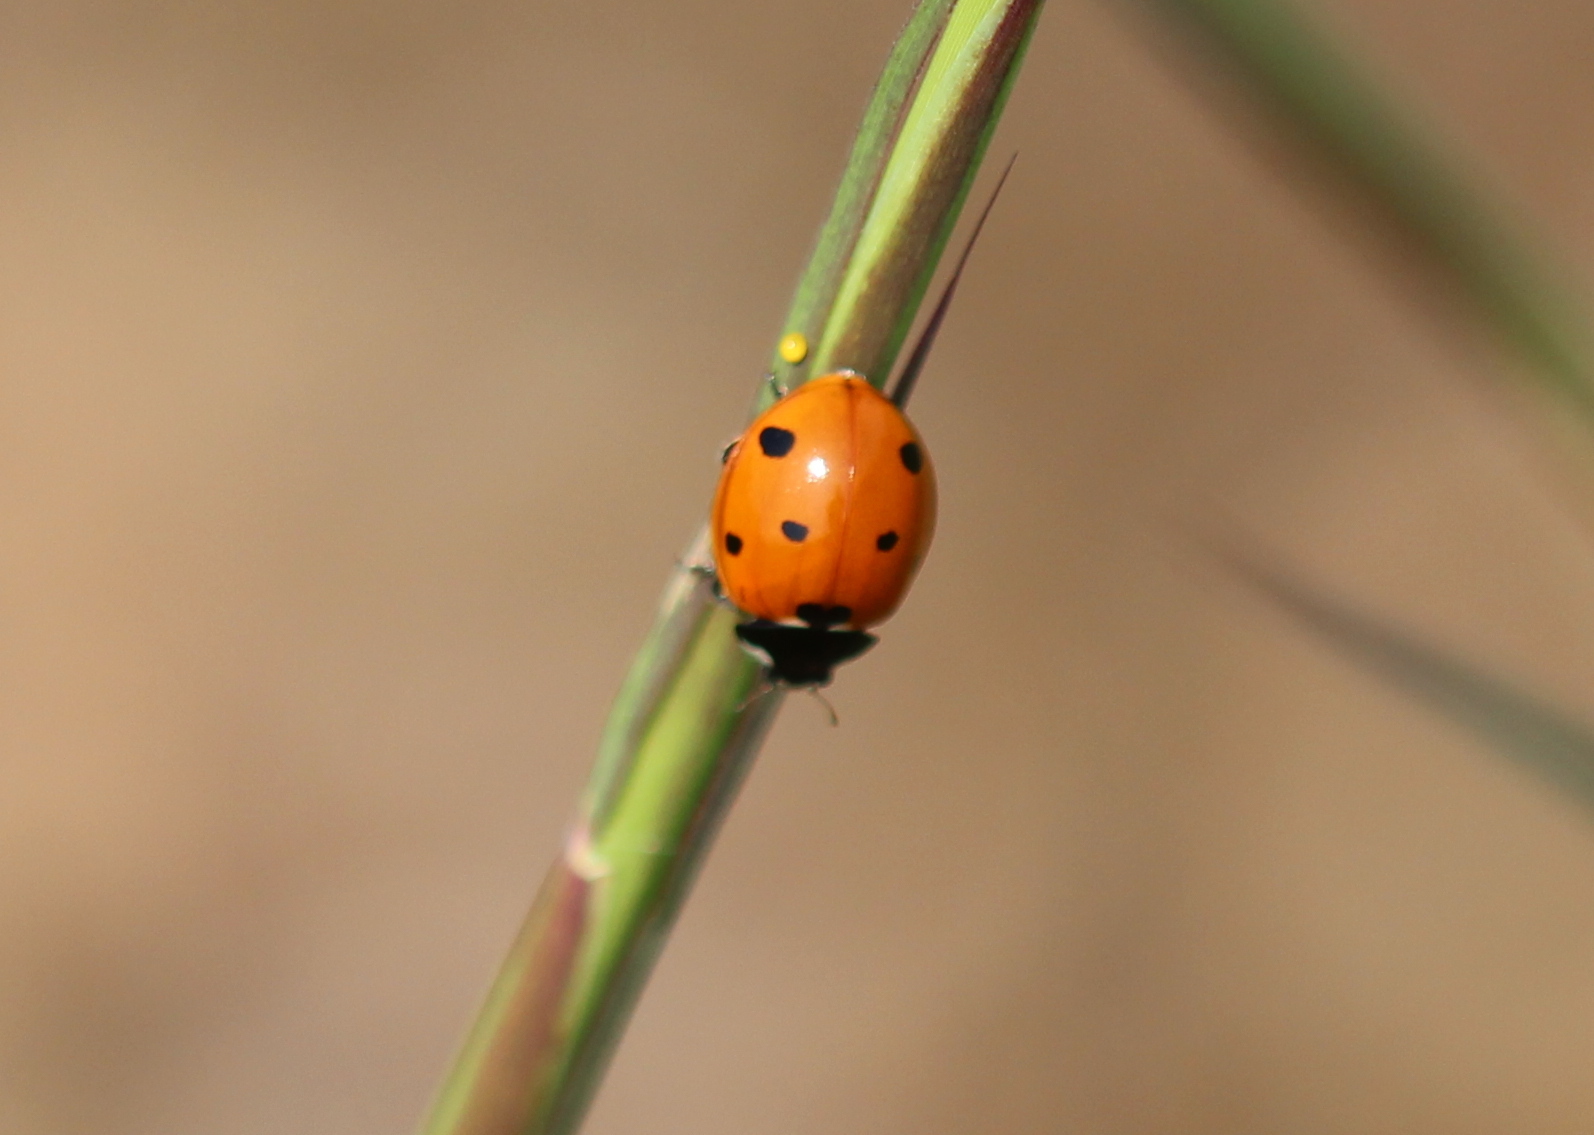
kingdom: Animalia
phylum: Arthropoda
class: Insecta
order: Coleoptera
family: Coccinellidae
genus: Coccinella
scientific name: Coccinella septempunctata
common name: Sevenspotted lady beetle
